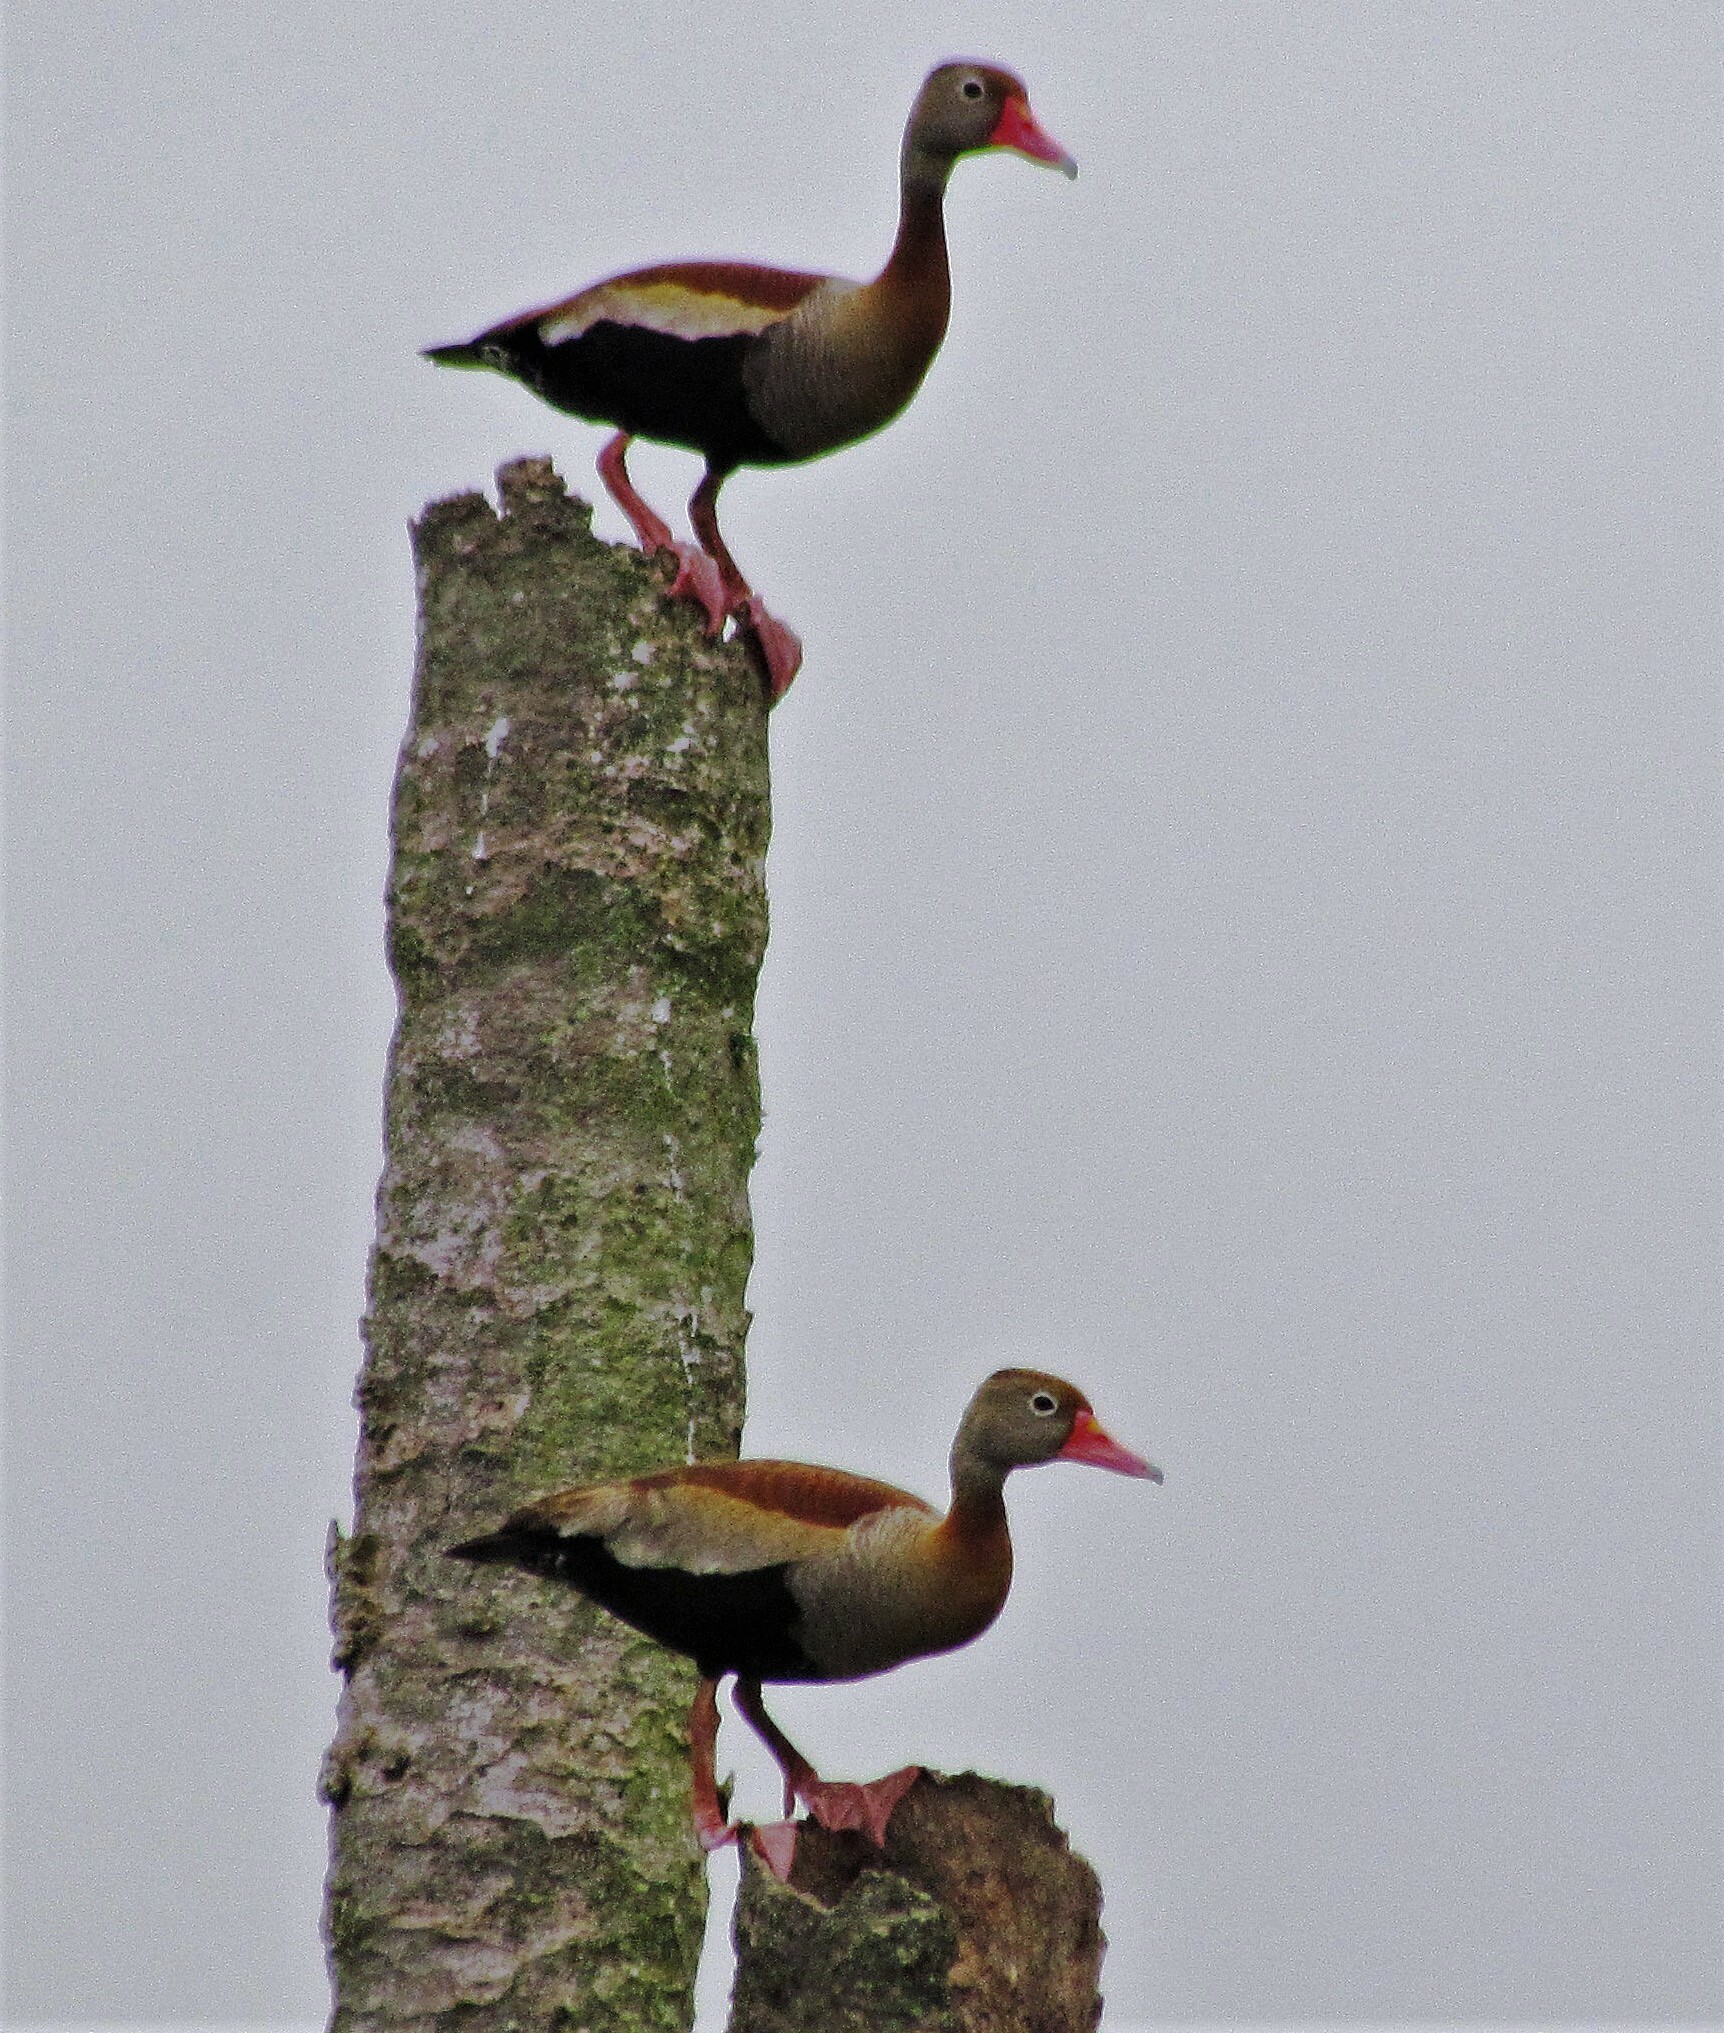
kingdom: Animalia
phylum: Chordata
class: Aves
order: Anseriformes
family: Anatidae
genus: Dendrocygna
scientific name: Dendrocygna autumnalis
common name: Black-bellied whistling duck
